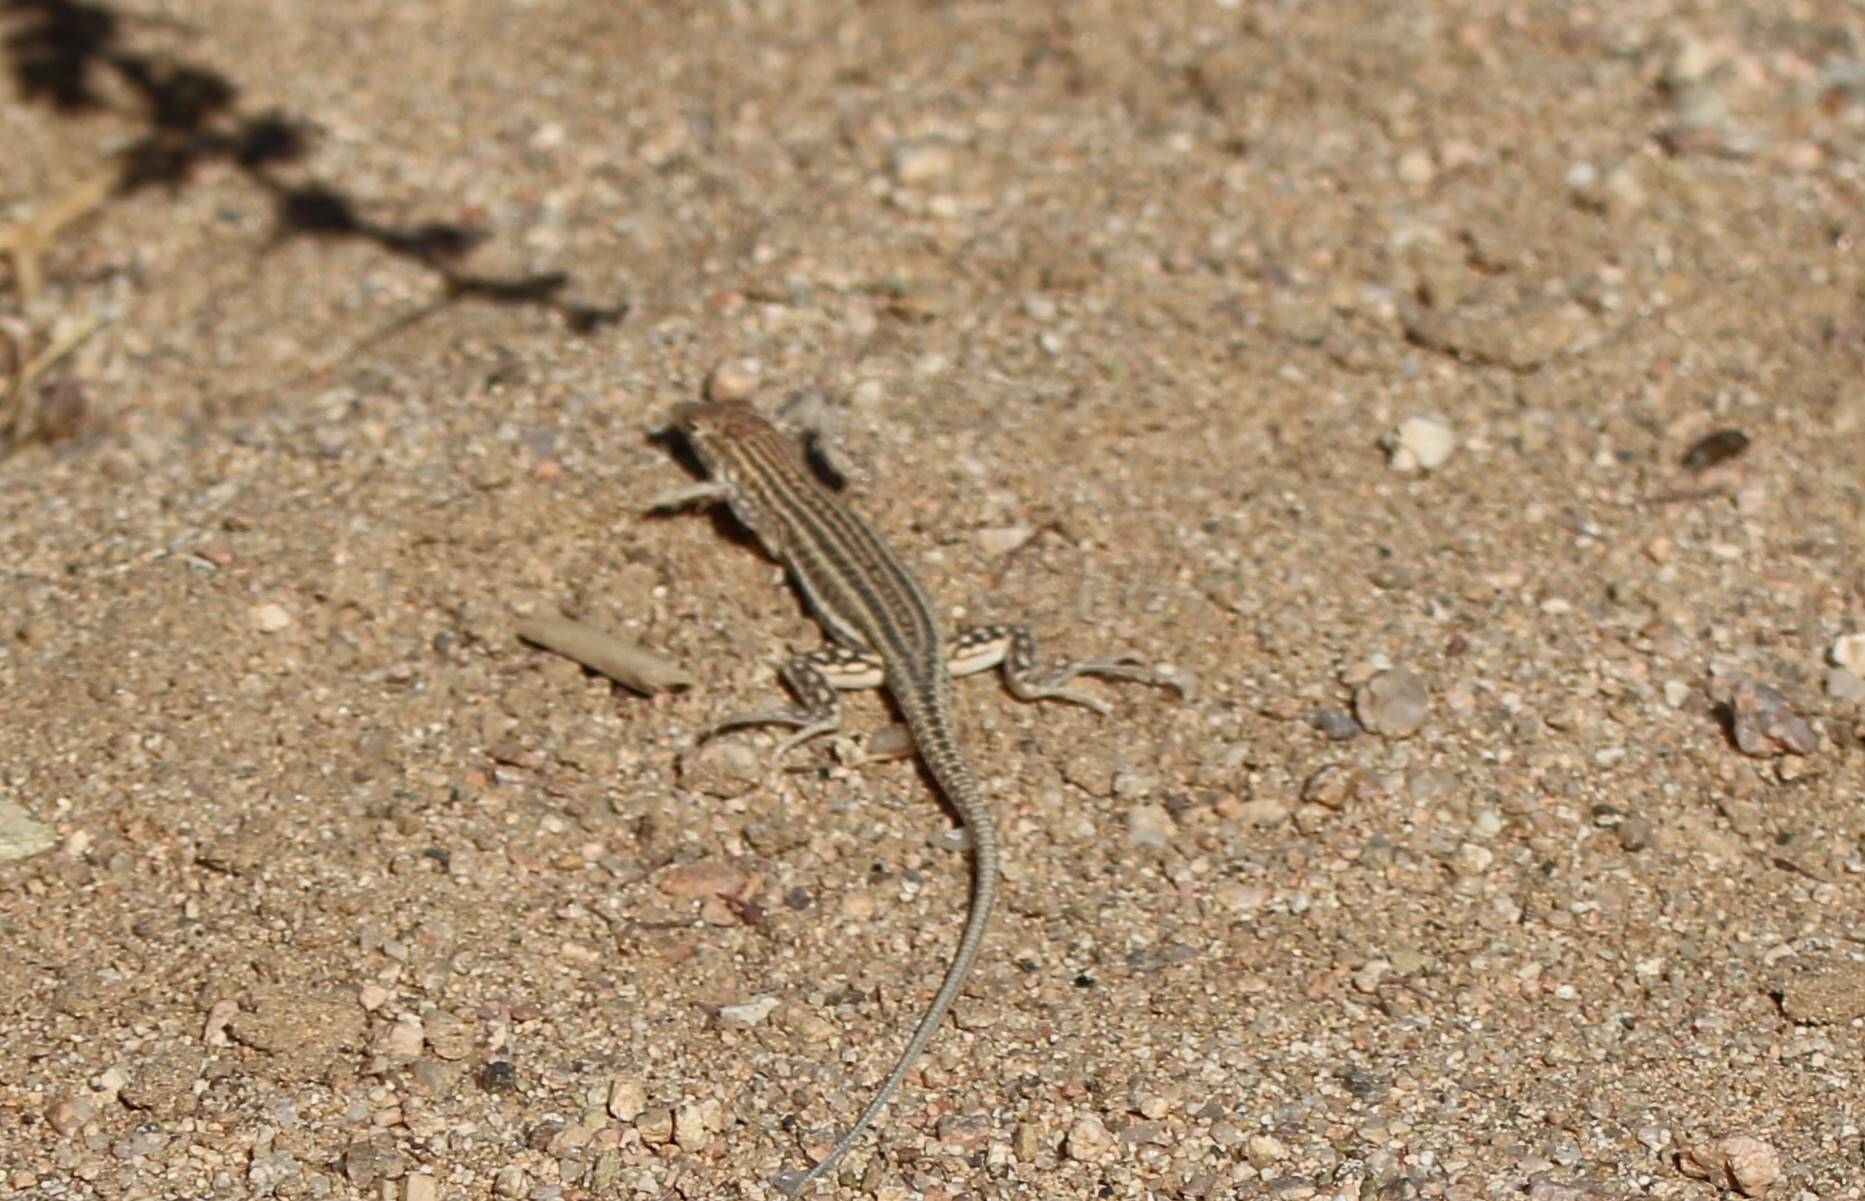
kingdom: Animalia
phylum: Chordata
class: Squamata
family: Lacertidae
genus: Acanthodactylus
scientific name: Acanthodactylus boskianus
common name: Bosc’s fringe-toed lizard
